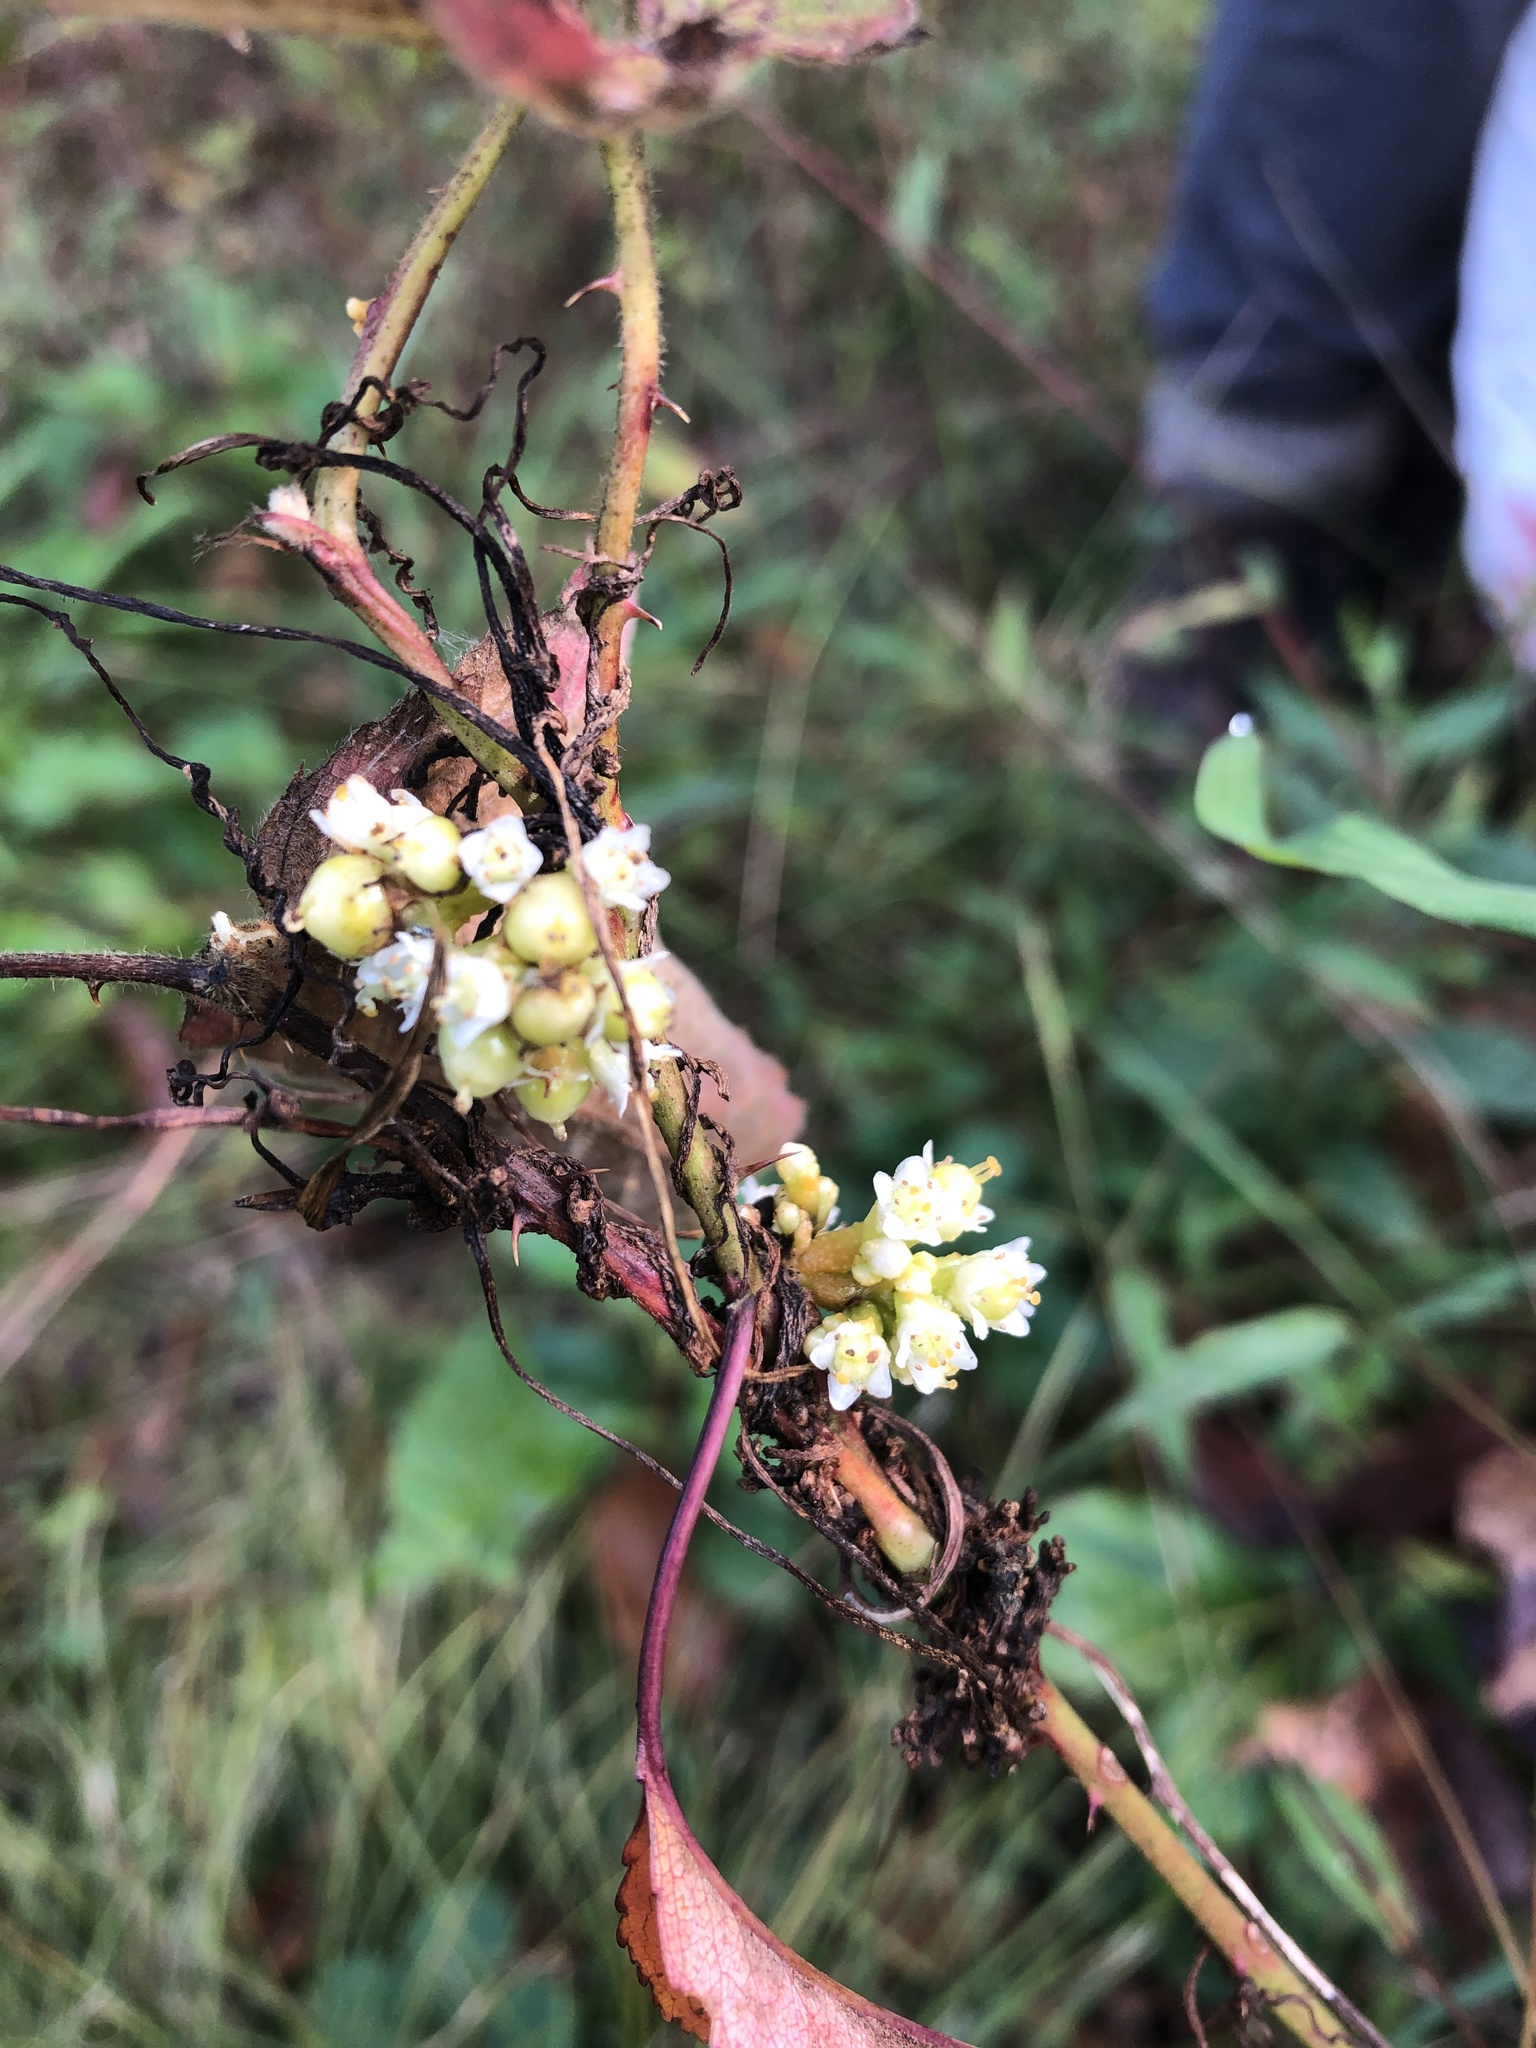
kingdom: Plantae
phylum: Tracheophyta
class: Magnoliopsida
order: Solanales
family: Convolvulaceae
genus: Cuscuta
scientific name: Cuscuta gronovii
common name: Common dodder
